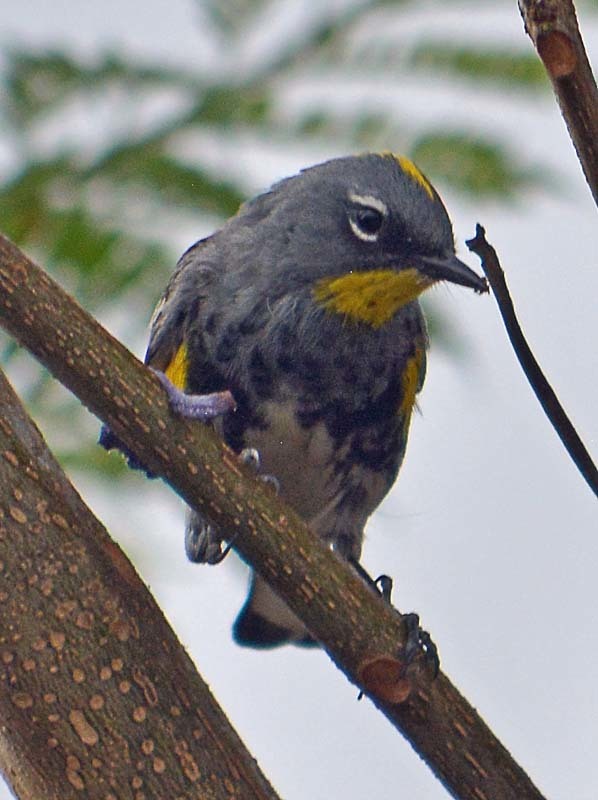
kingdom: Animalia
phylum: Chordata
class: Aves
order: Passeriformes
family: Parulidae
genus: Setophaga
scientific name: Setophaga auduboni
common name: Audubon's warbler
